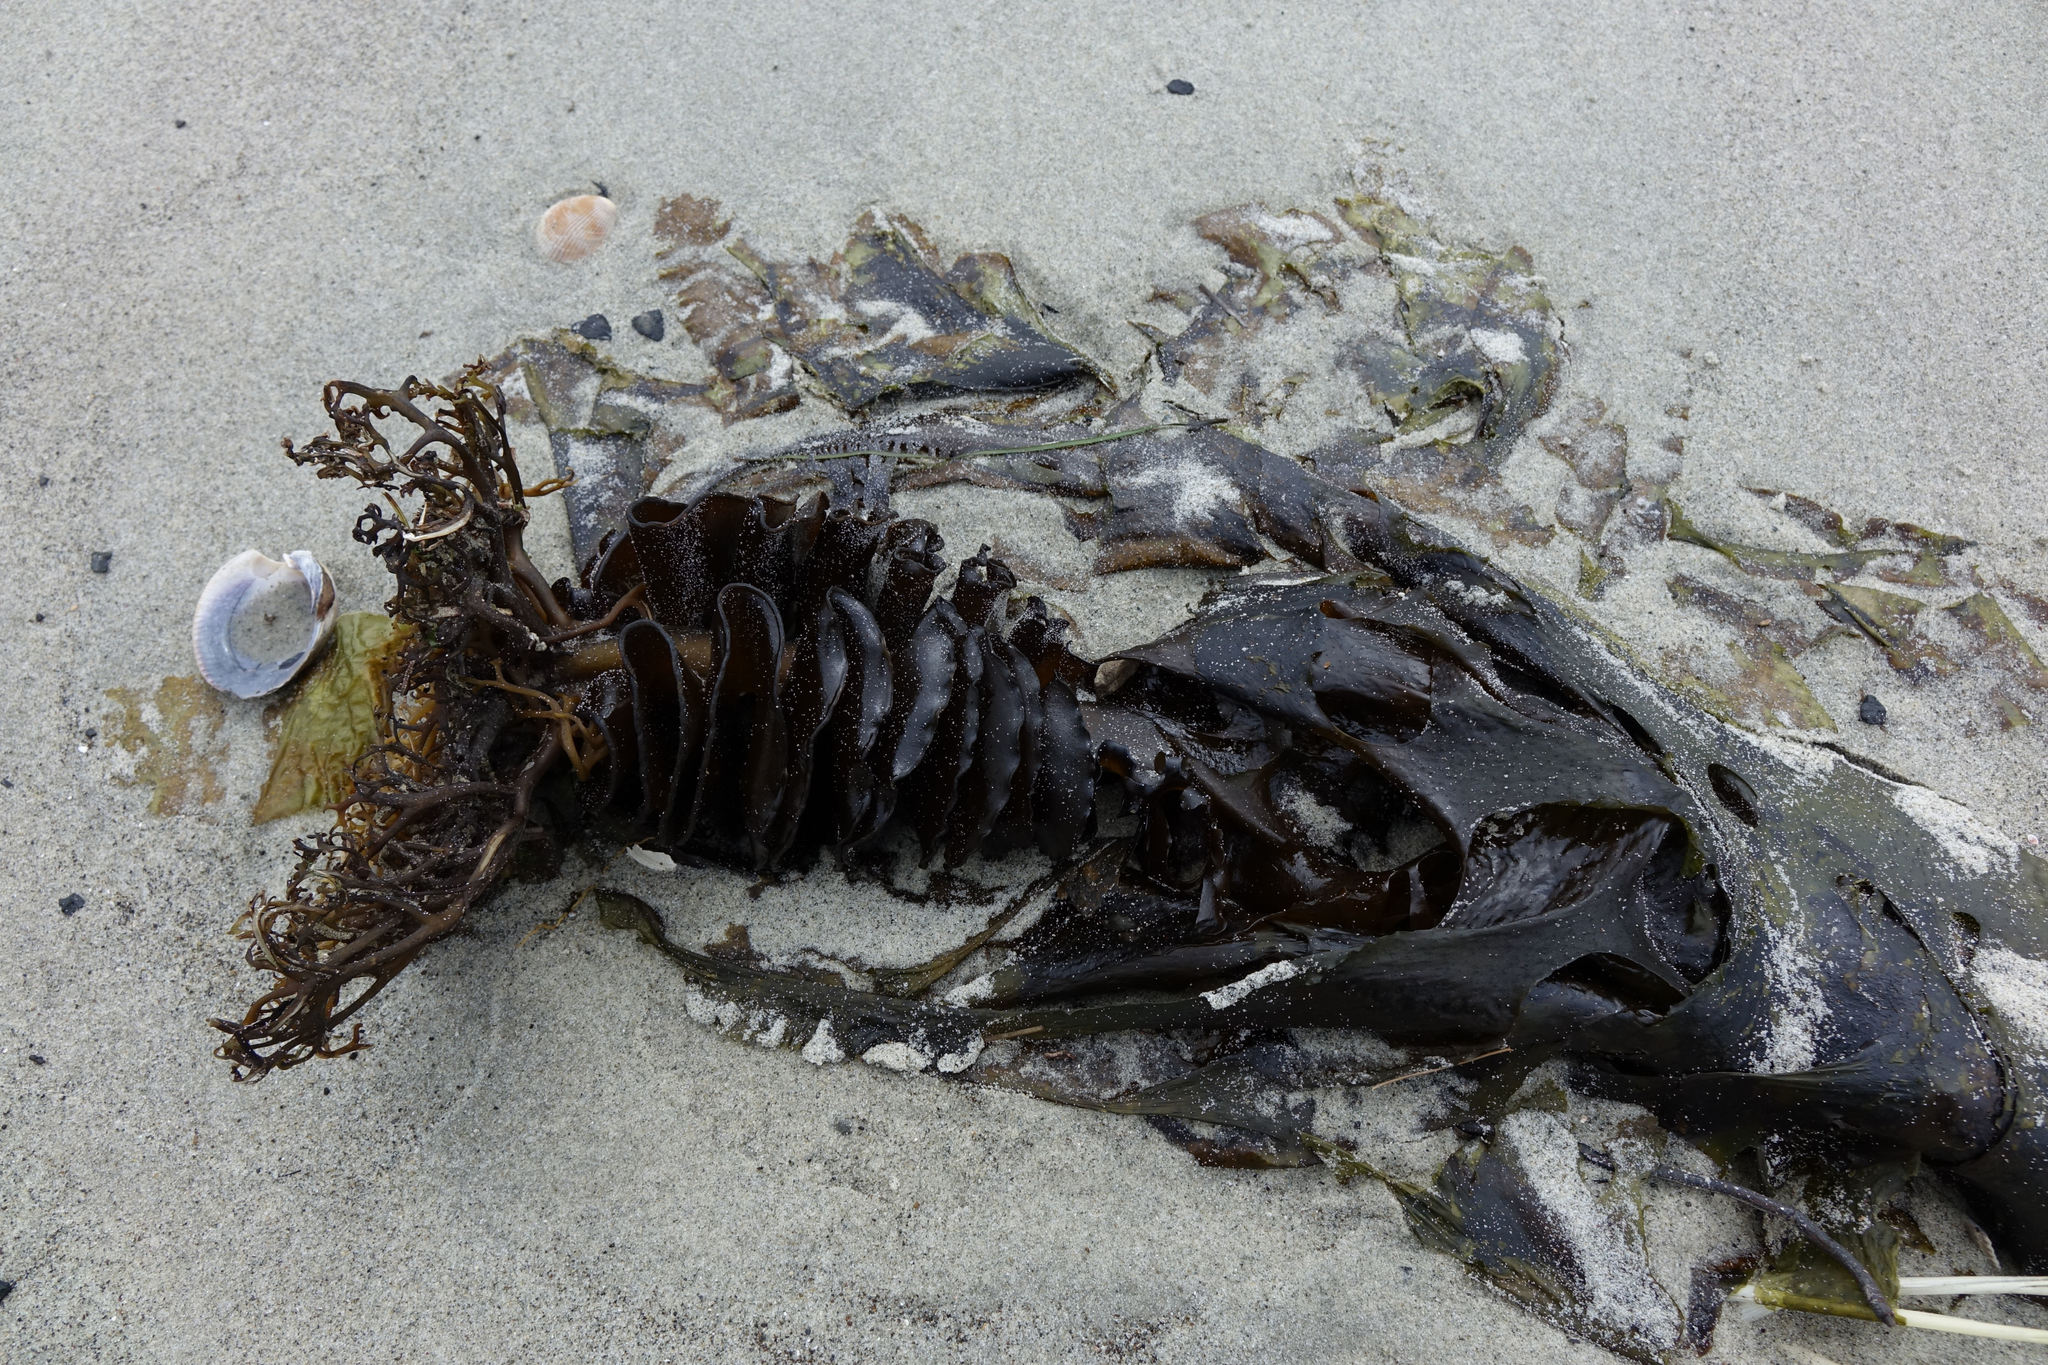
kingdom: Chromista
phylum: Ochrophyta
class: Phaeophyceae
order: Laminariales
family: Alariaceae
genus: Undaria
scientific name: Undaria pinnatifida
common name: Asian kelp
